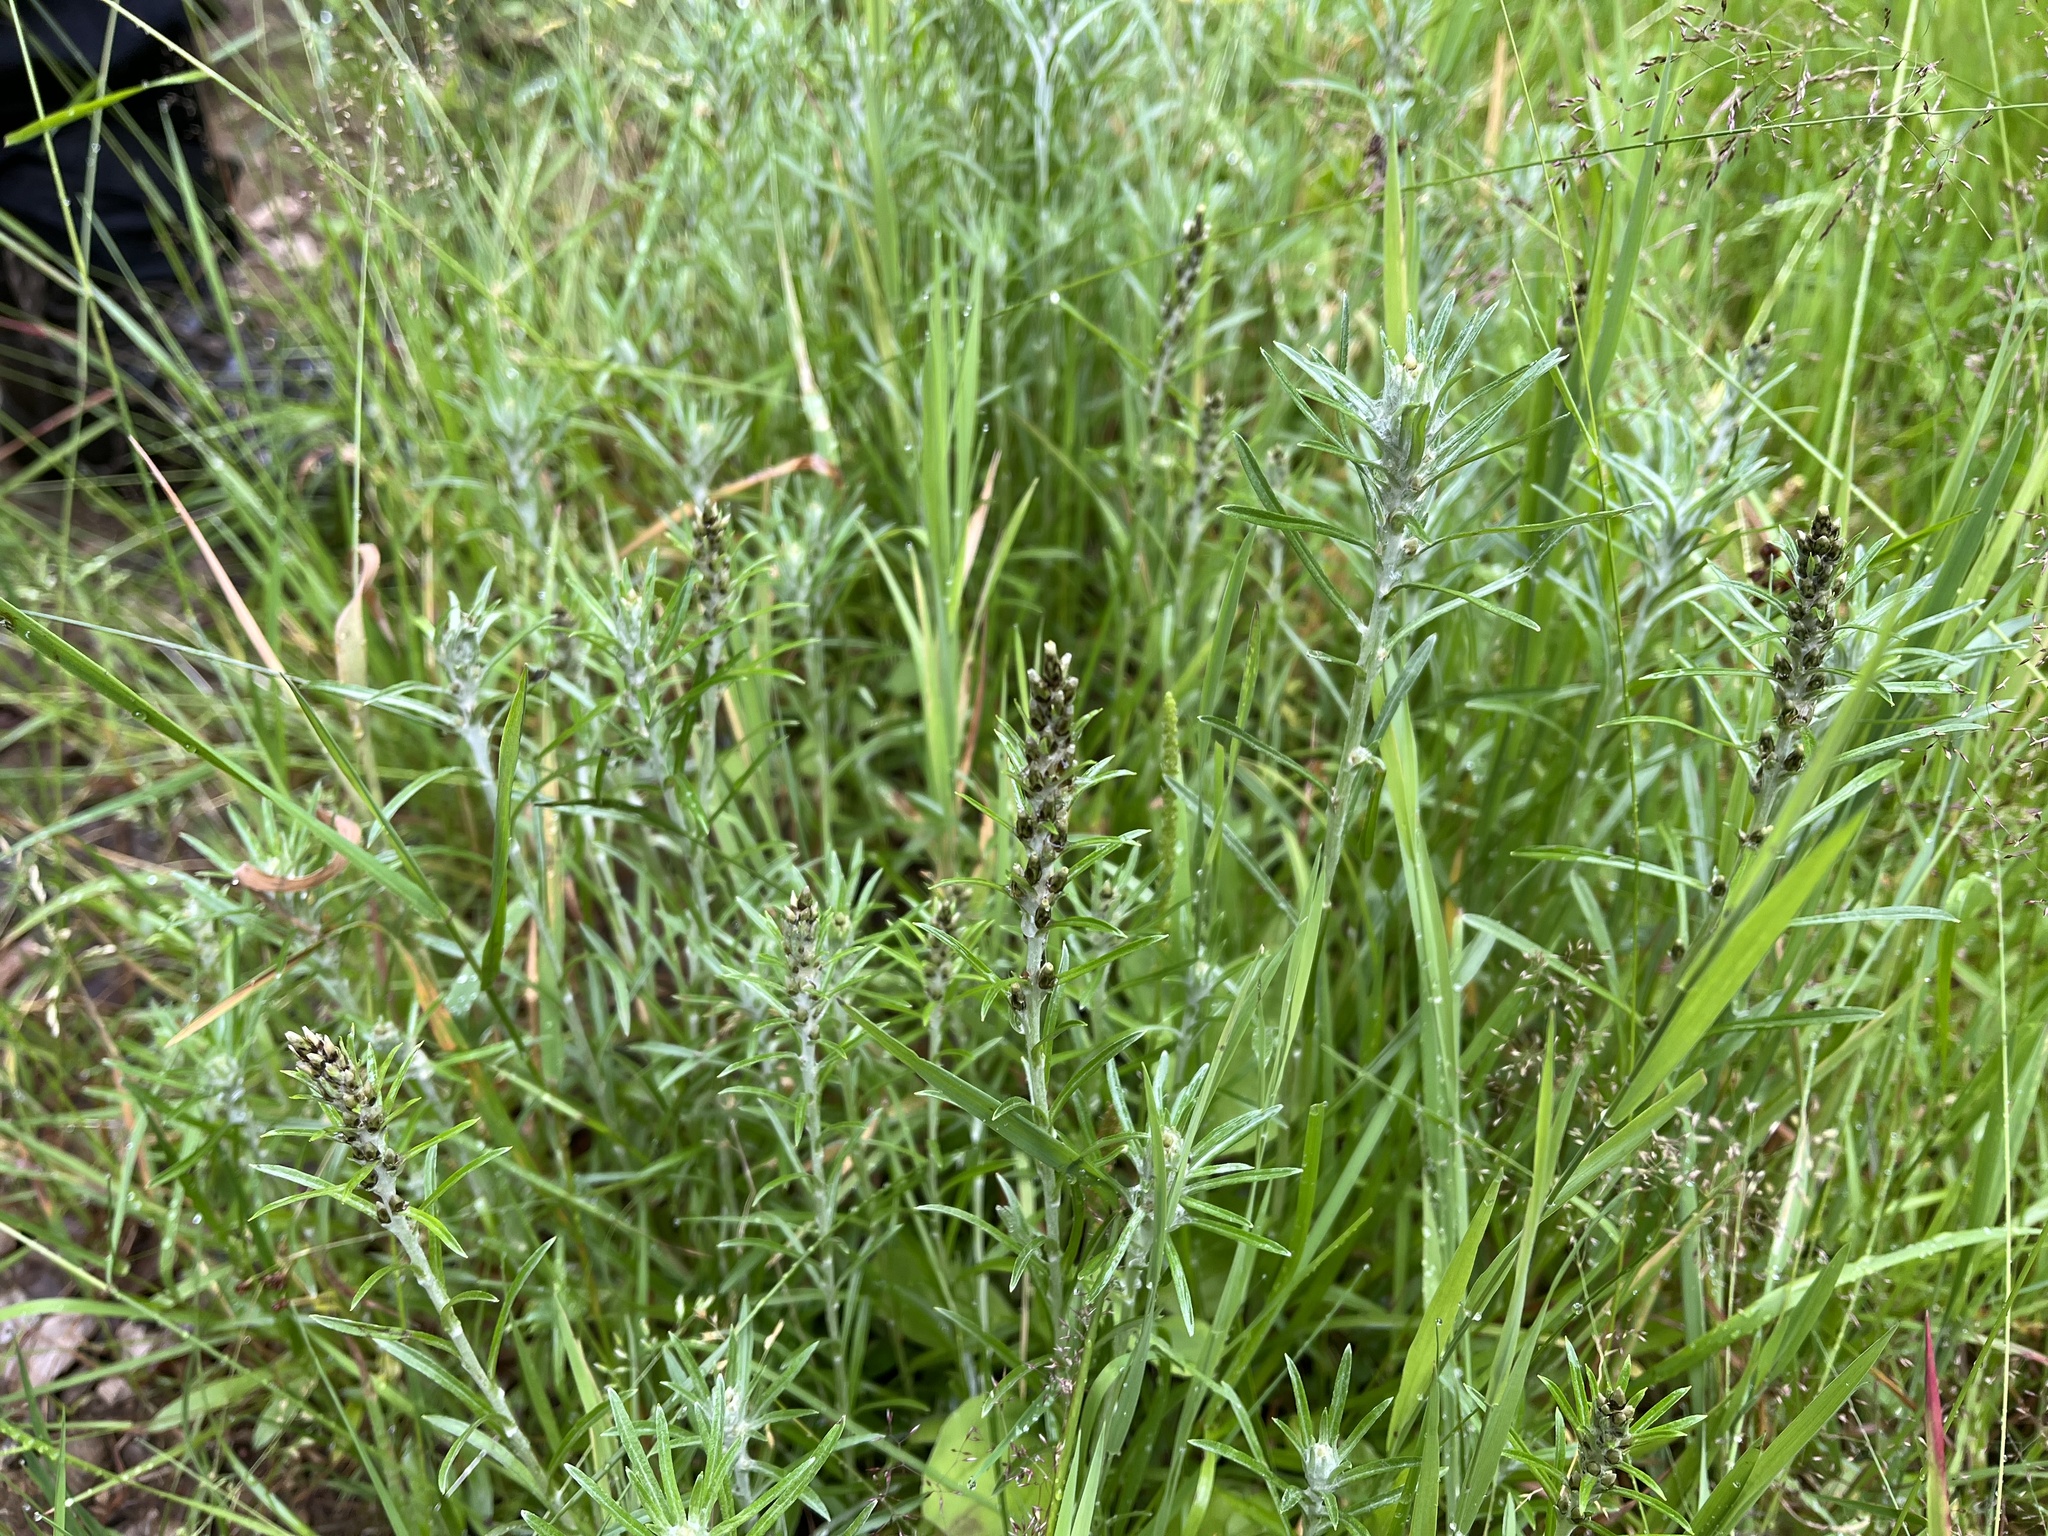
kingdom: Plantae
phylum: Tracheophyta
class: Magnoliopsida
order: Asterales
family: Asteraceae
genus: Omalotheca
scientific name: Omalotheca sylvatica
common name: Heath cudweed
